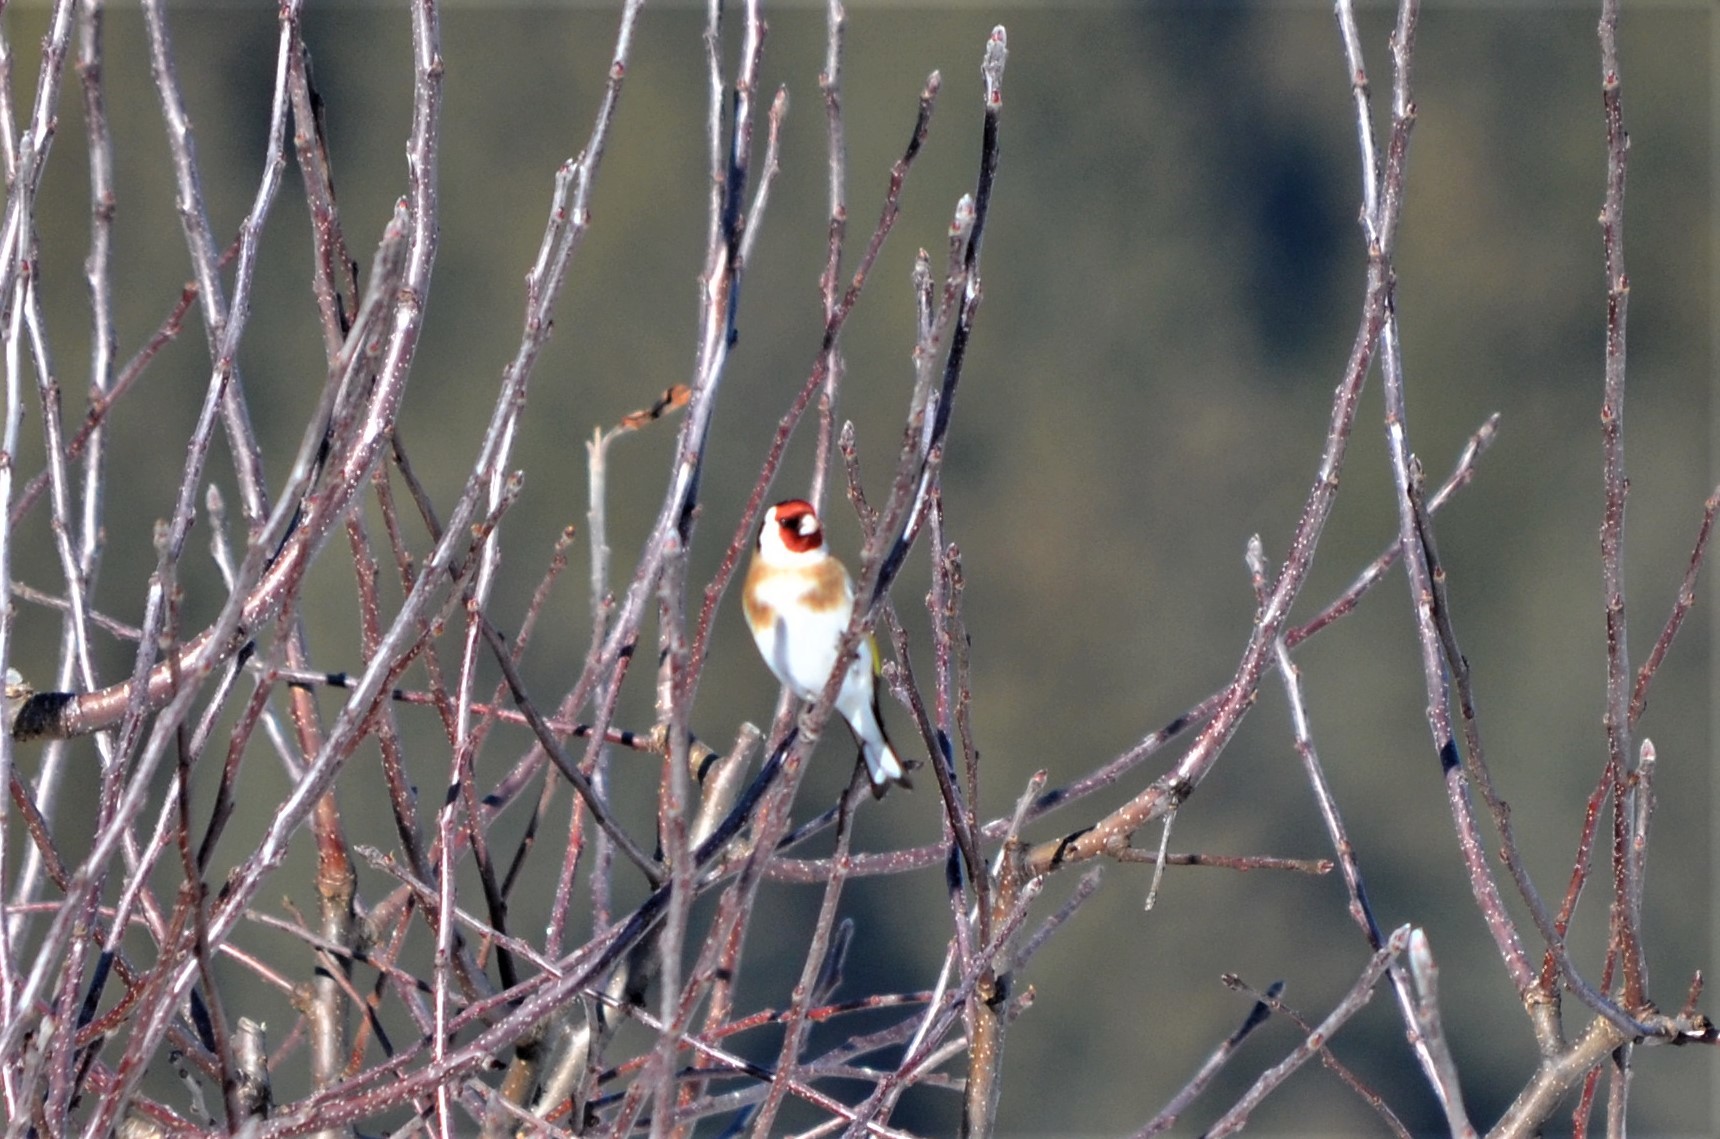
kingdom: Animalia
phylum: Chordata
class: Aves
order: Passeriformes
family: Fringillidae
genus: Carduelis
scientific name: Carduelis carduelis
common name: European goldfinch
